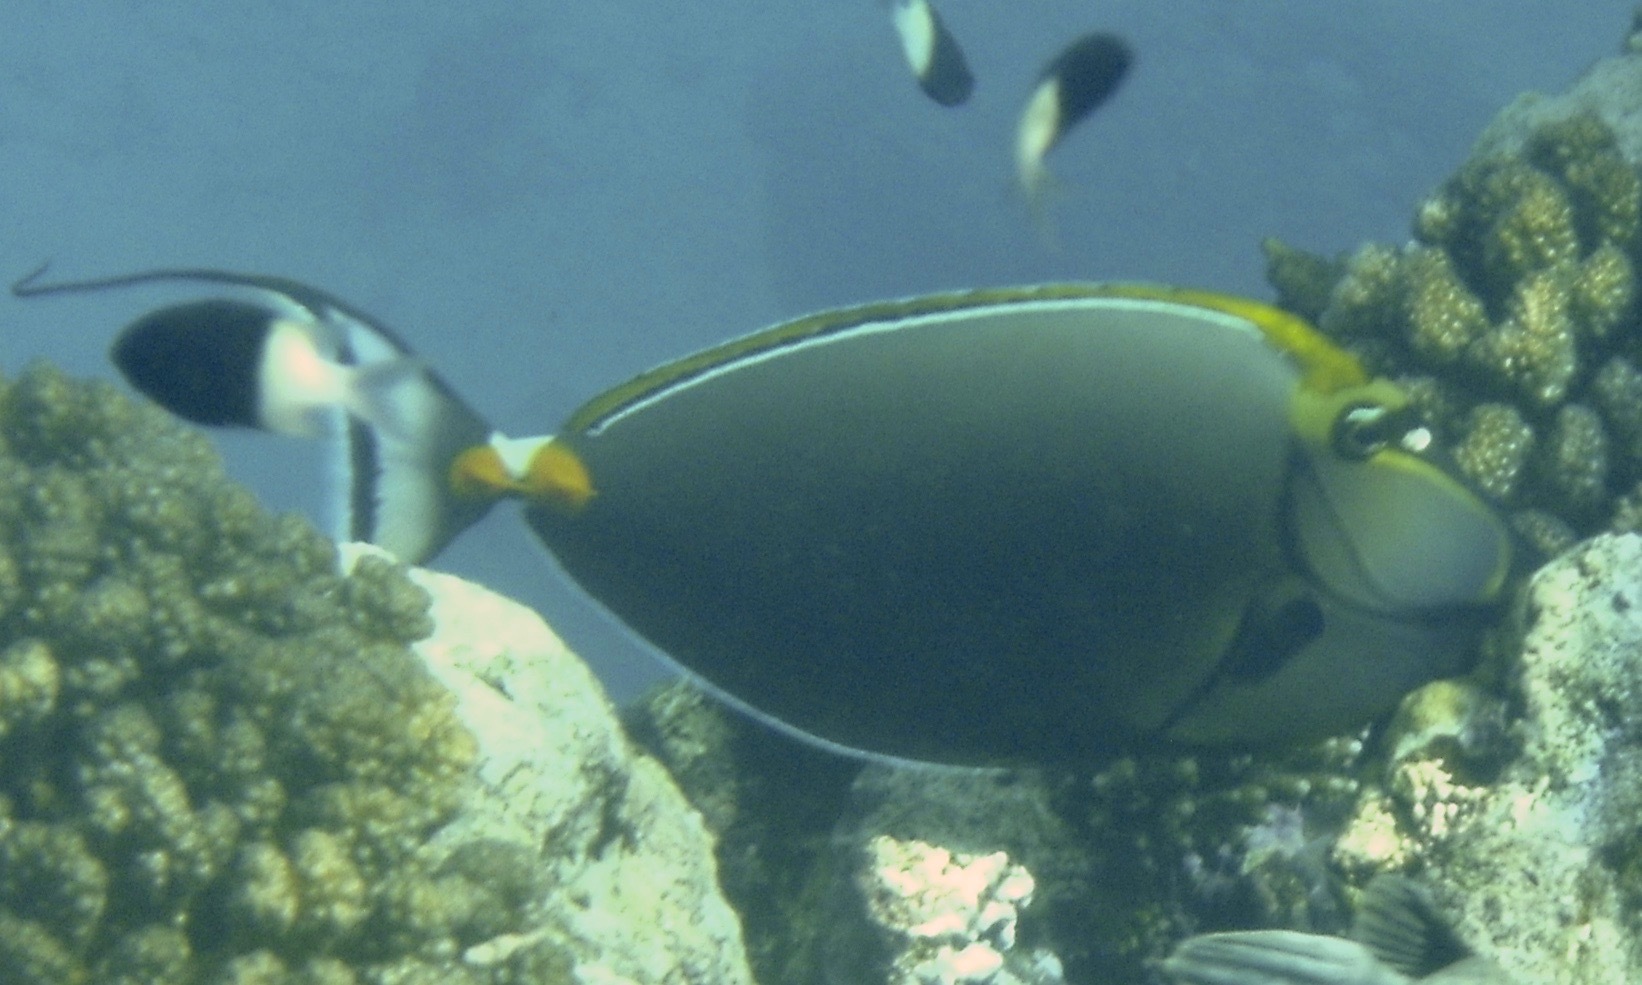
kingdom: Animalia
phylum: Chordata
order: Perciformes
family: Acanthuridae
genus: Naso
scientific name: Naso elegans
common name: Orangespine unicornfish
